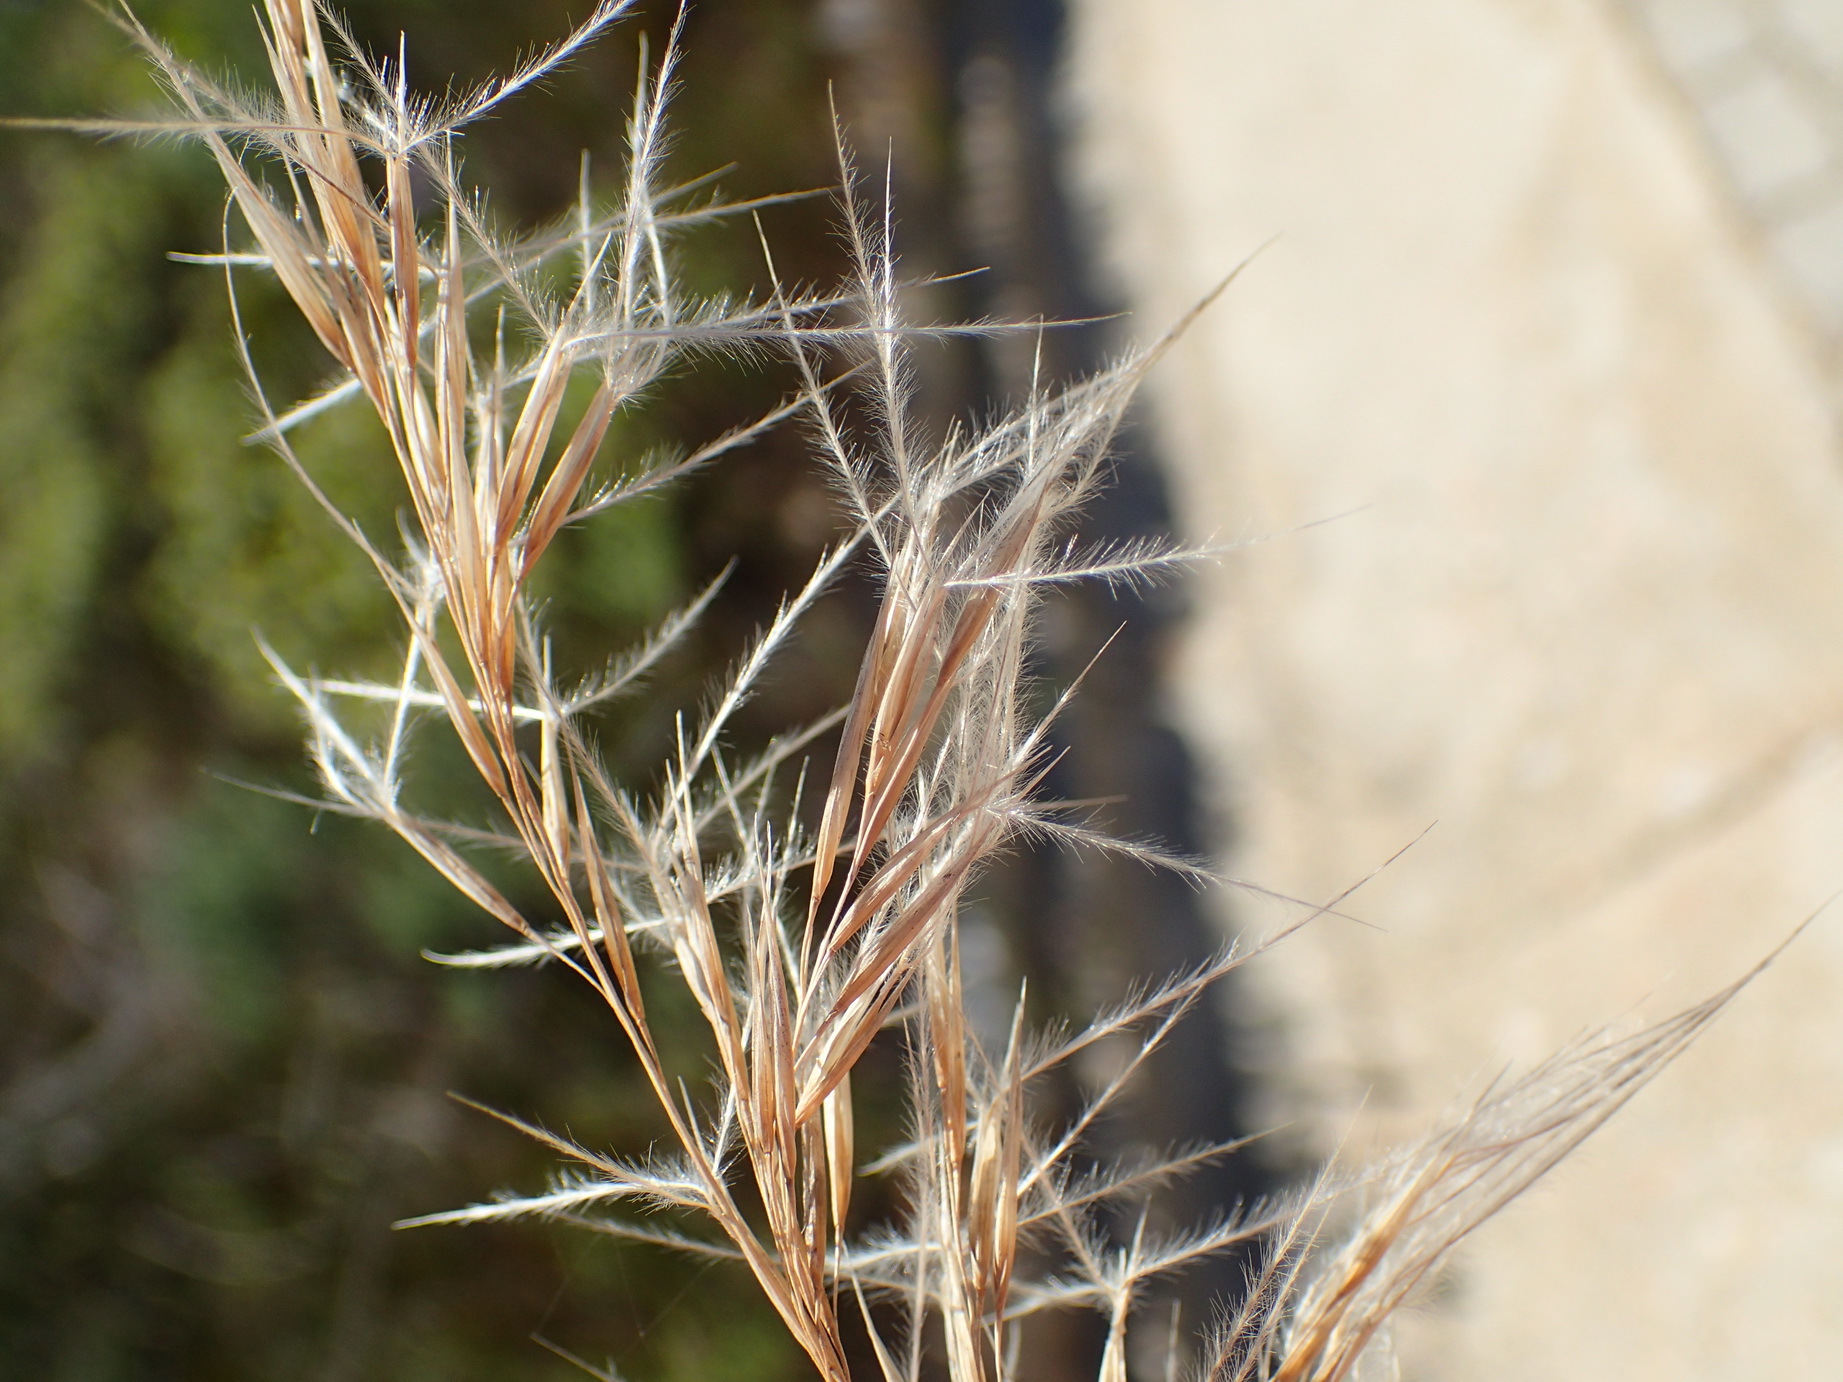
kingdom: Plantae
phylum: Tracheophyta
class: Liliopsida
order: Poales
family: Poaceae
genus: Stipagrostis
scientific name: Stipagrostis zeyheri
